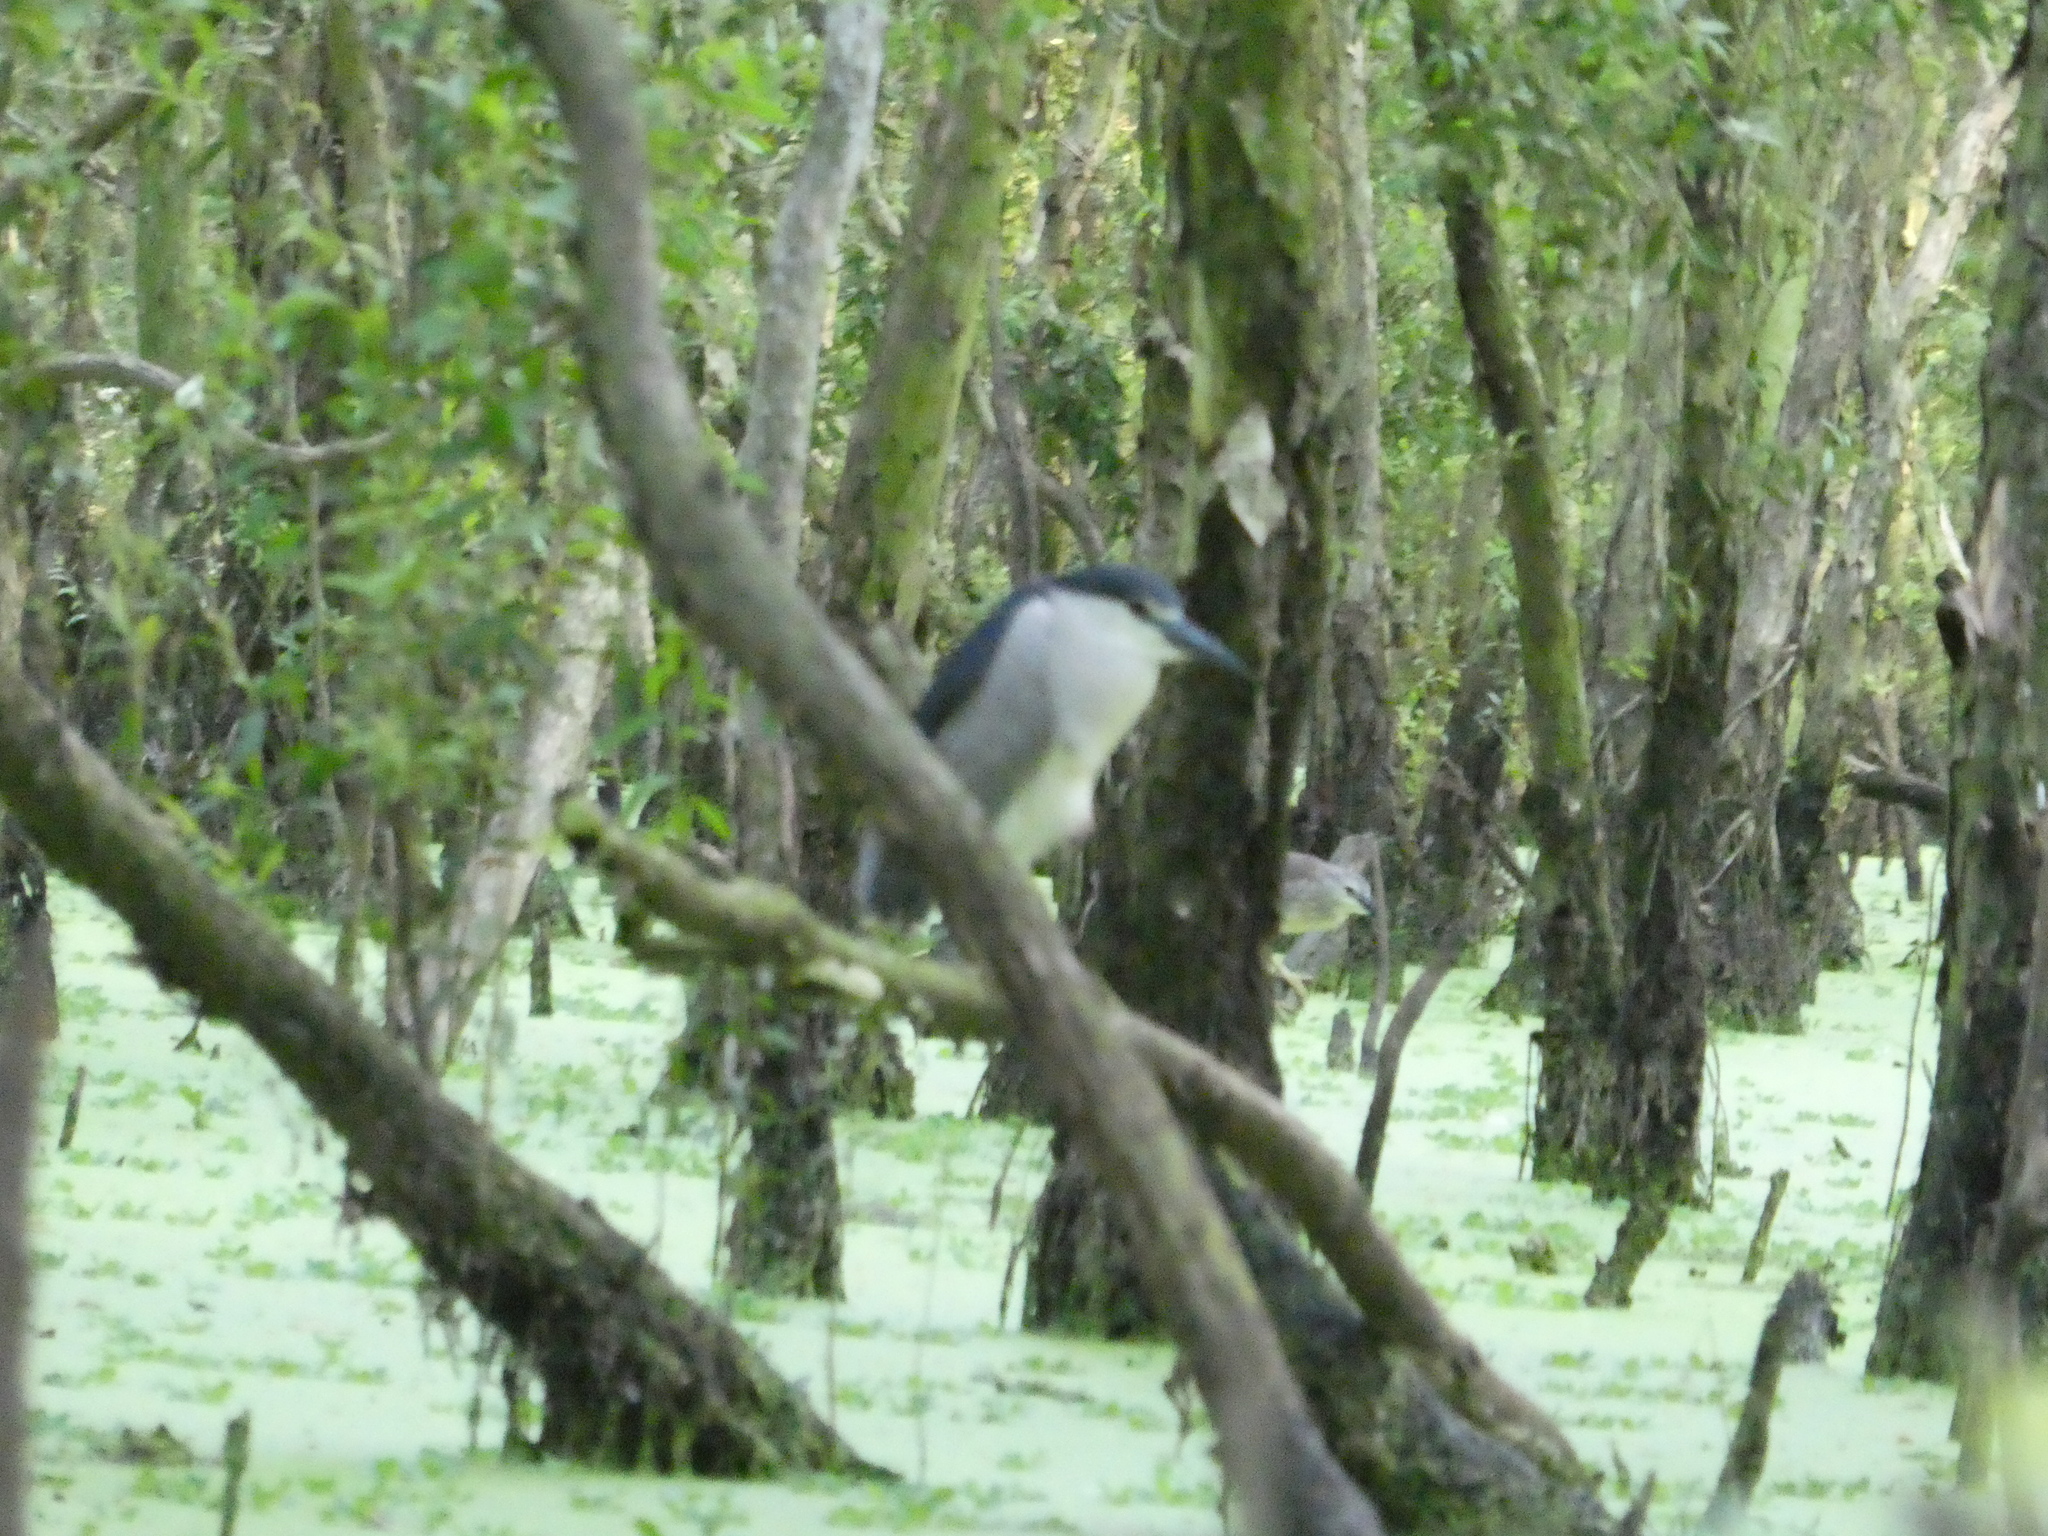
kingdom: Animalia
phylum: Chordata
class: Aves
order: Pelecaniformes
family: Ardeidae
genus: Nycticorax
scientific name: Nycticorax nycticorax
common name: Black-crowned night heron
